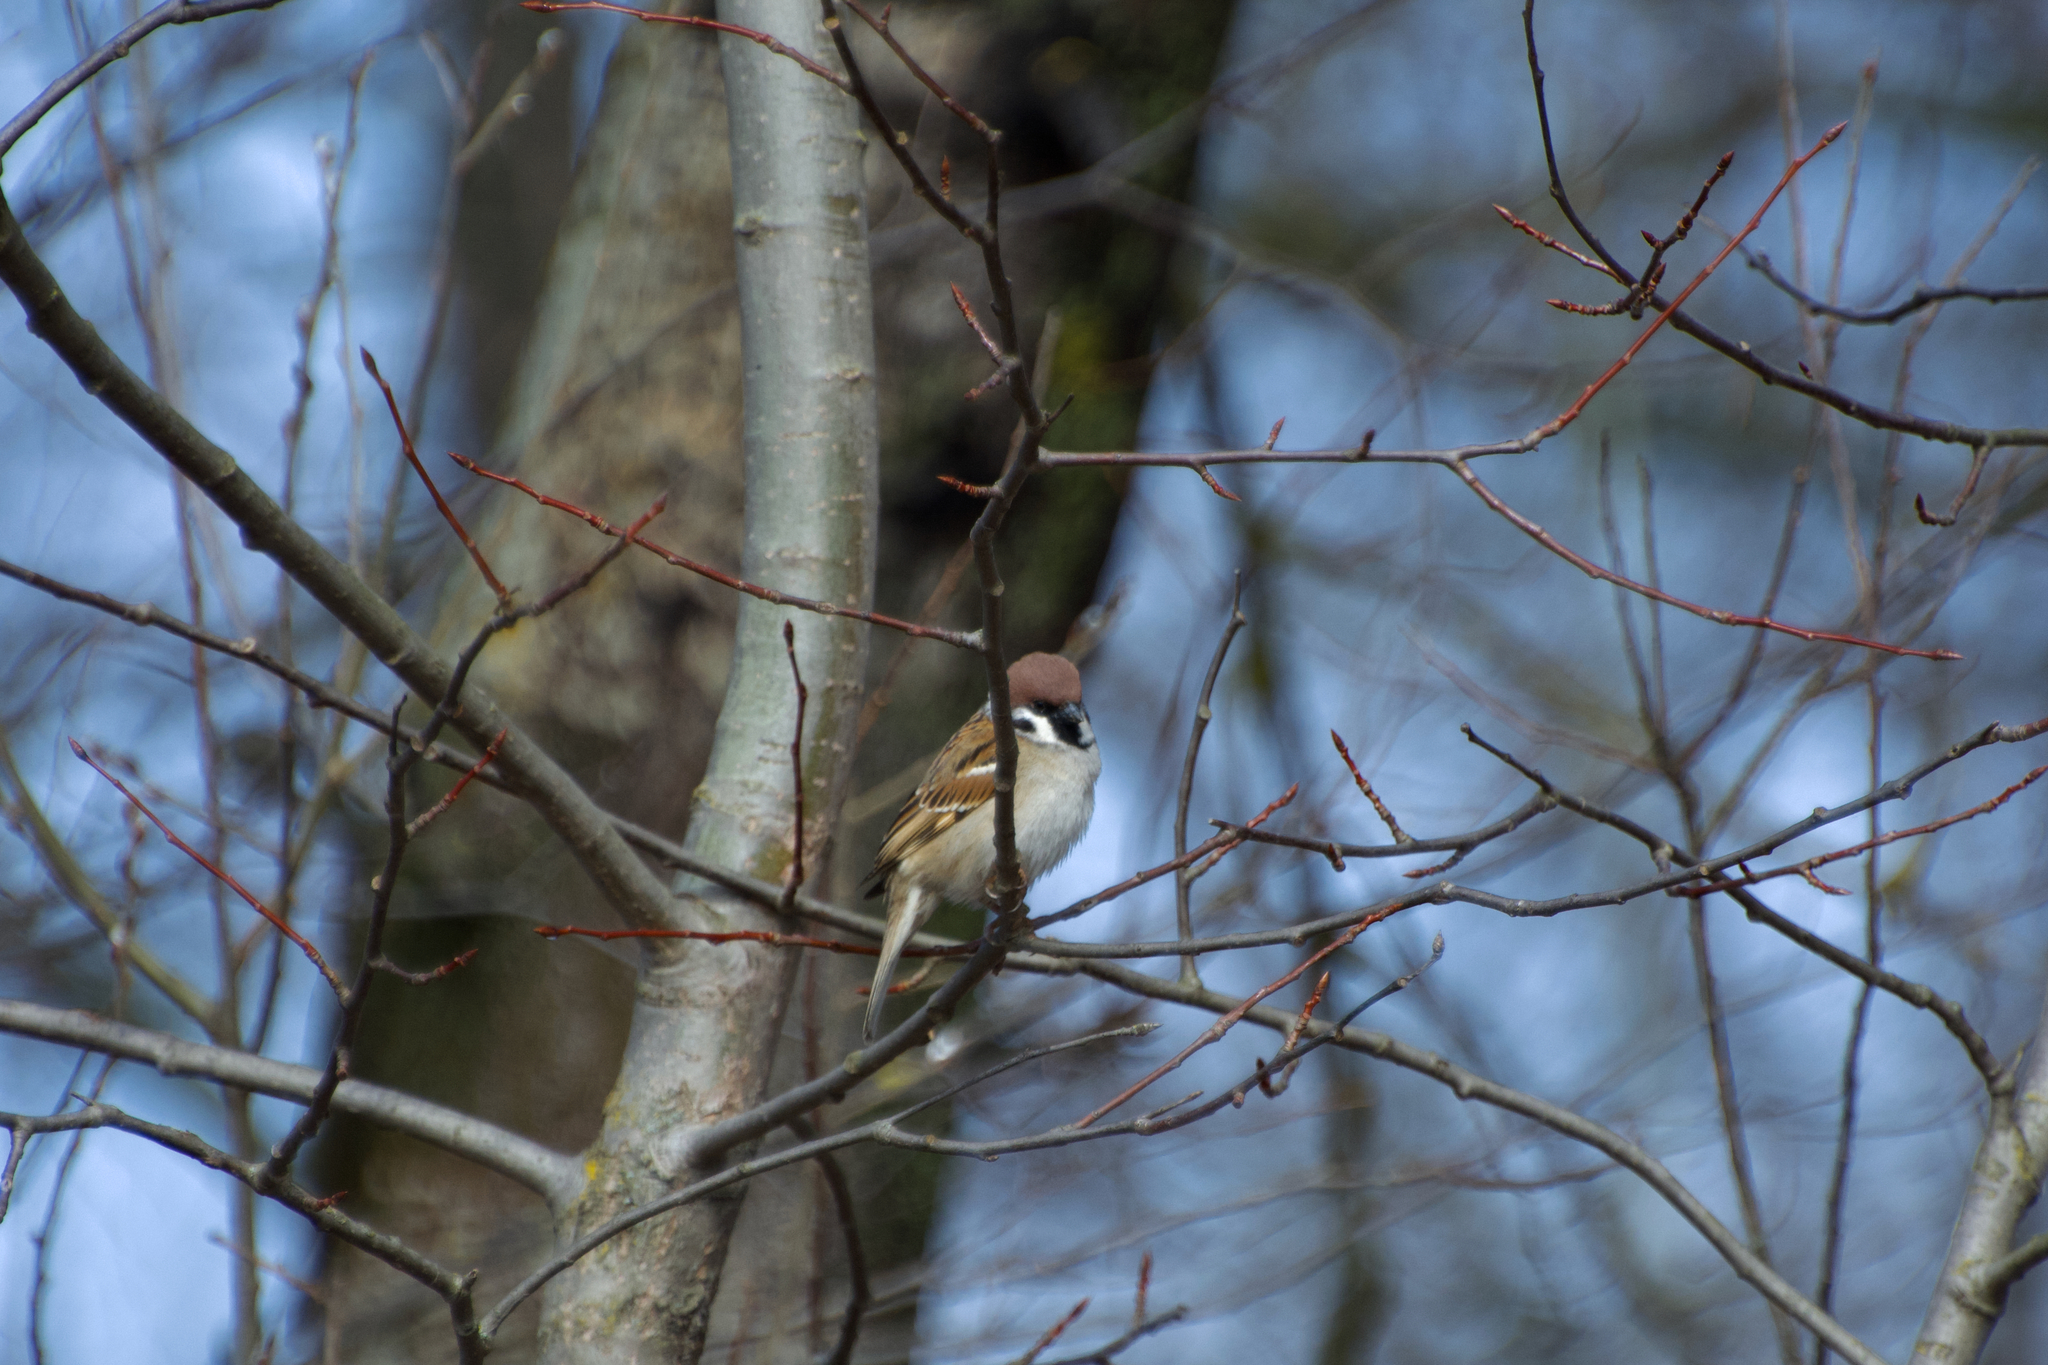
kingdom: Animalia
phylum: Chordata
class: Aves
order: Passeriformes
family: Passeridae
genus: Passer
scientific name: Passer montanus
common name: Eurasian tree sparrow
